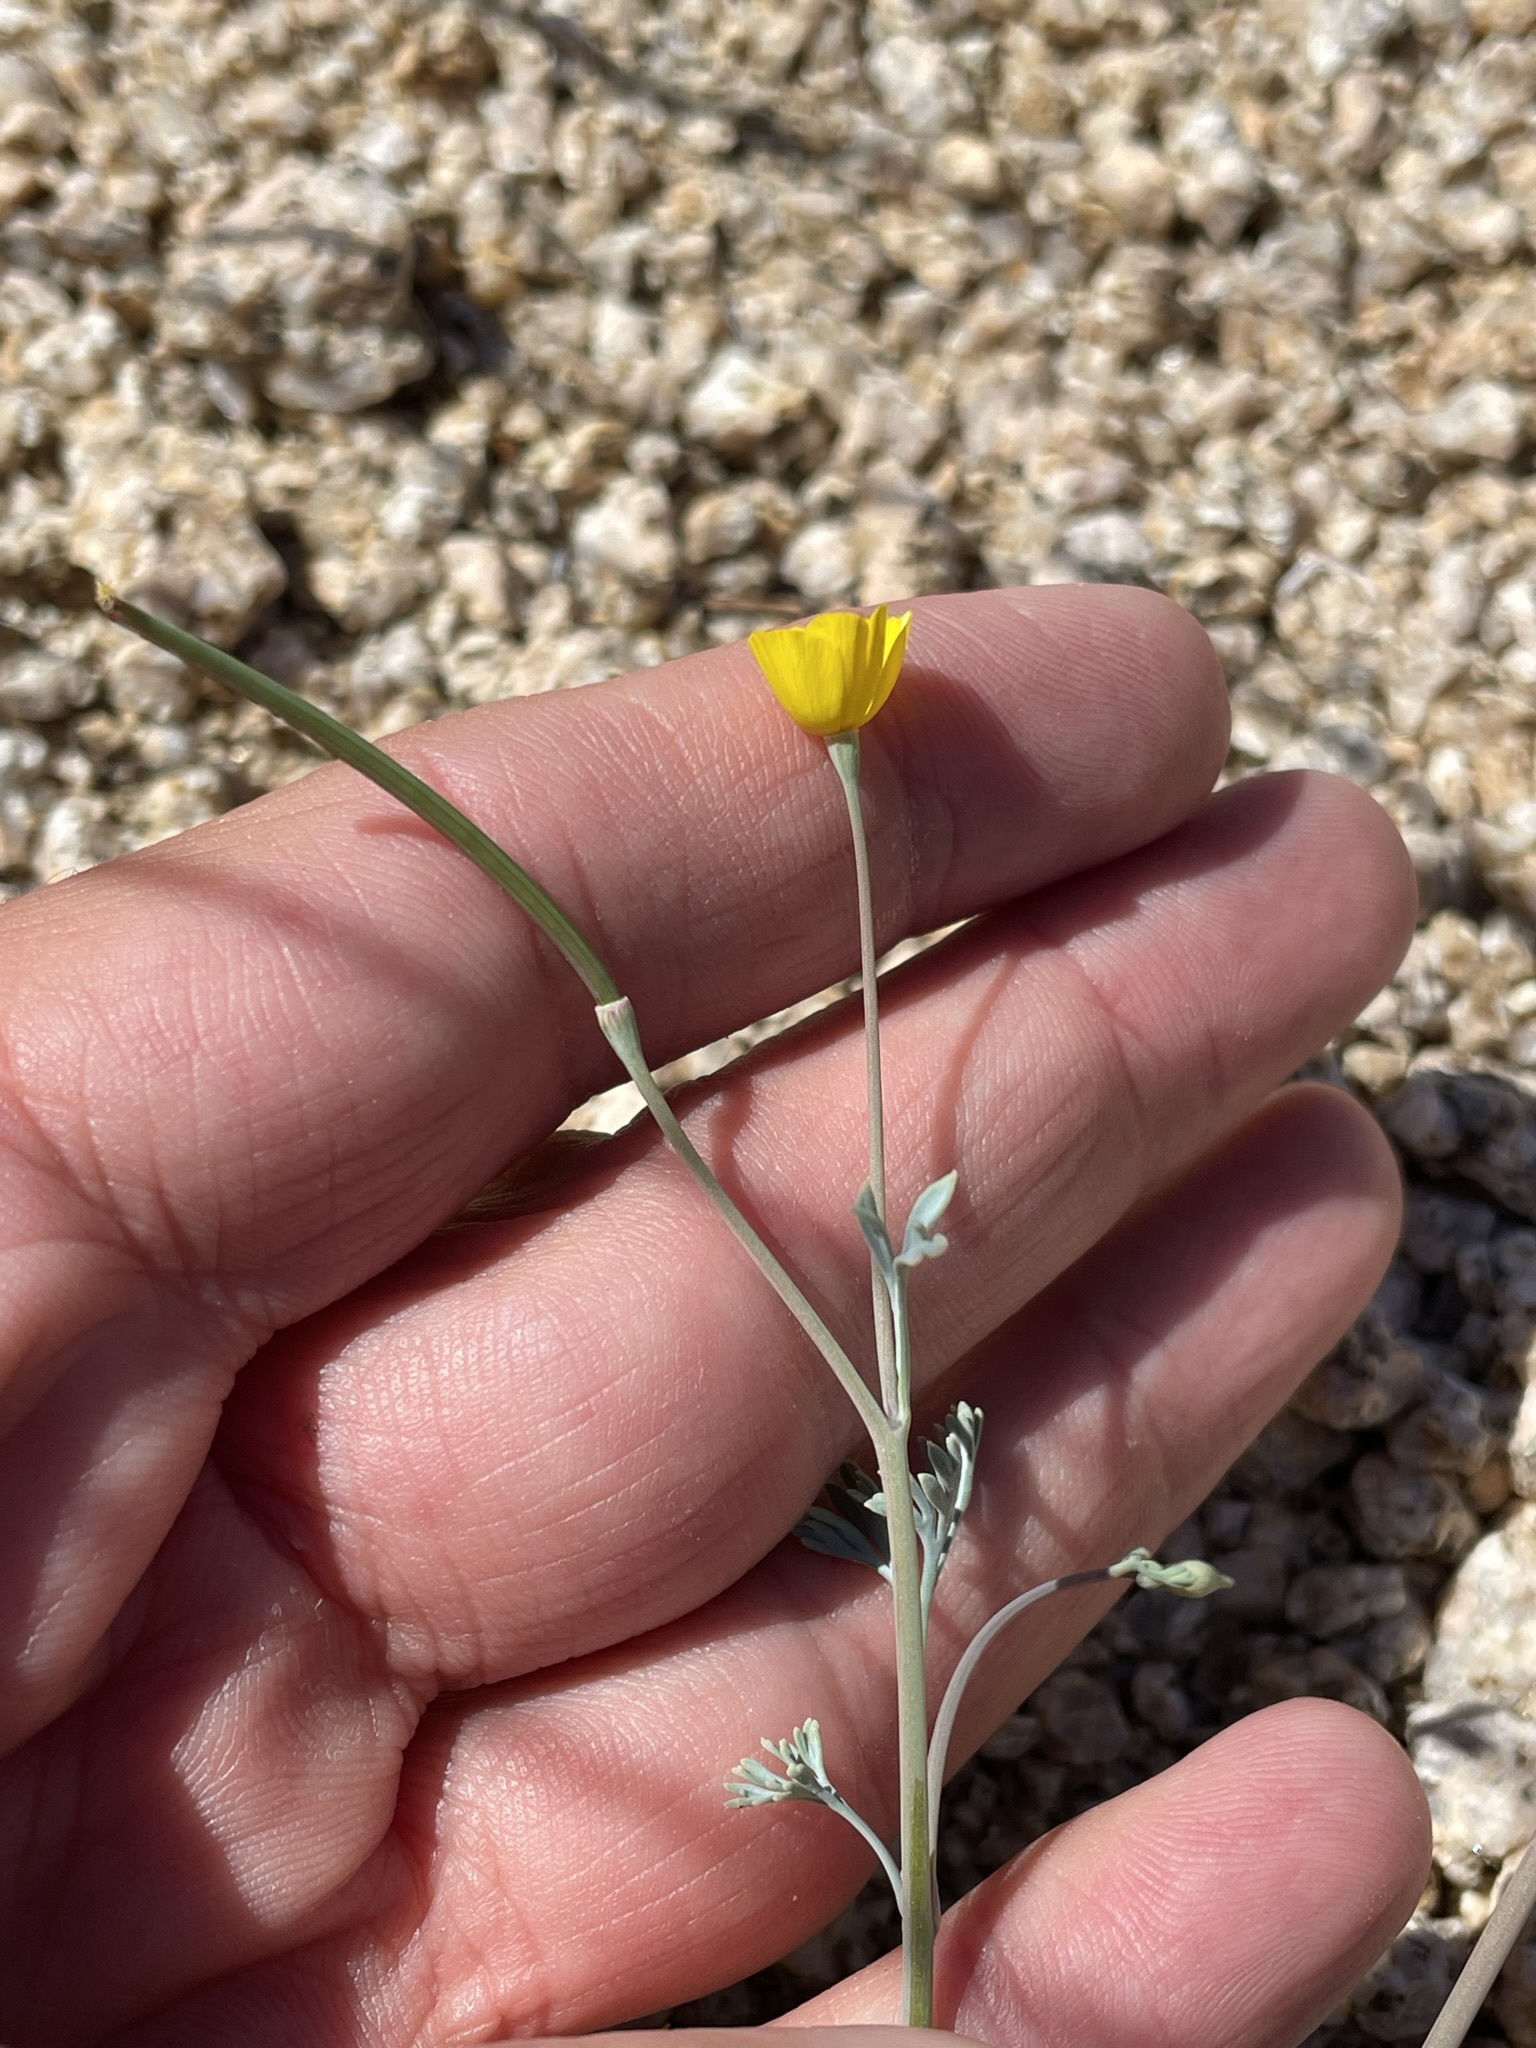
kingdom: Plantae
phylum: Tracheophyta
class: Magnoliopsida
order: Ranunculales
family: Papaveraceae
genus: Eschscholzia
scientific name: Eschscholzia minutiflora
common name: Small-flower california-poppy
